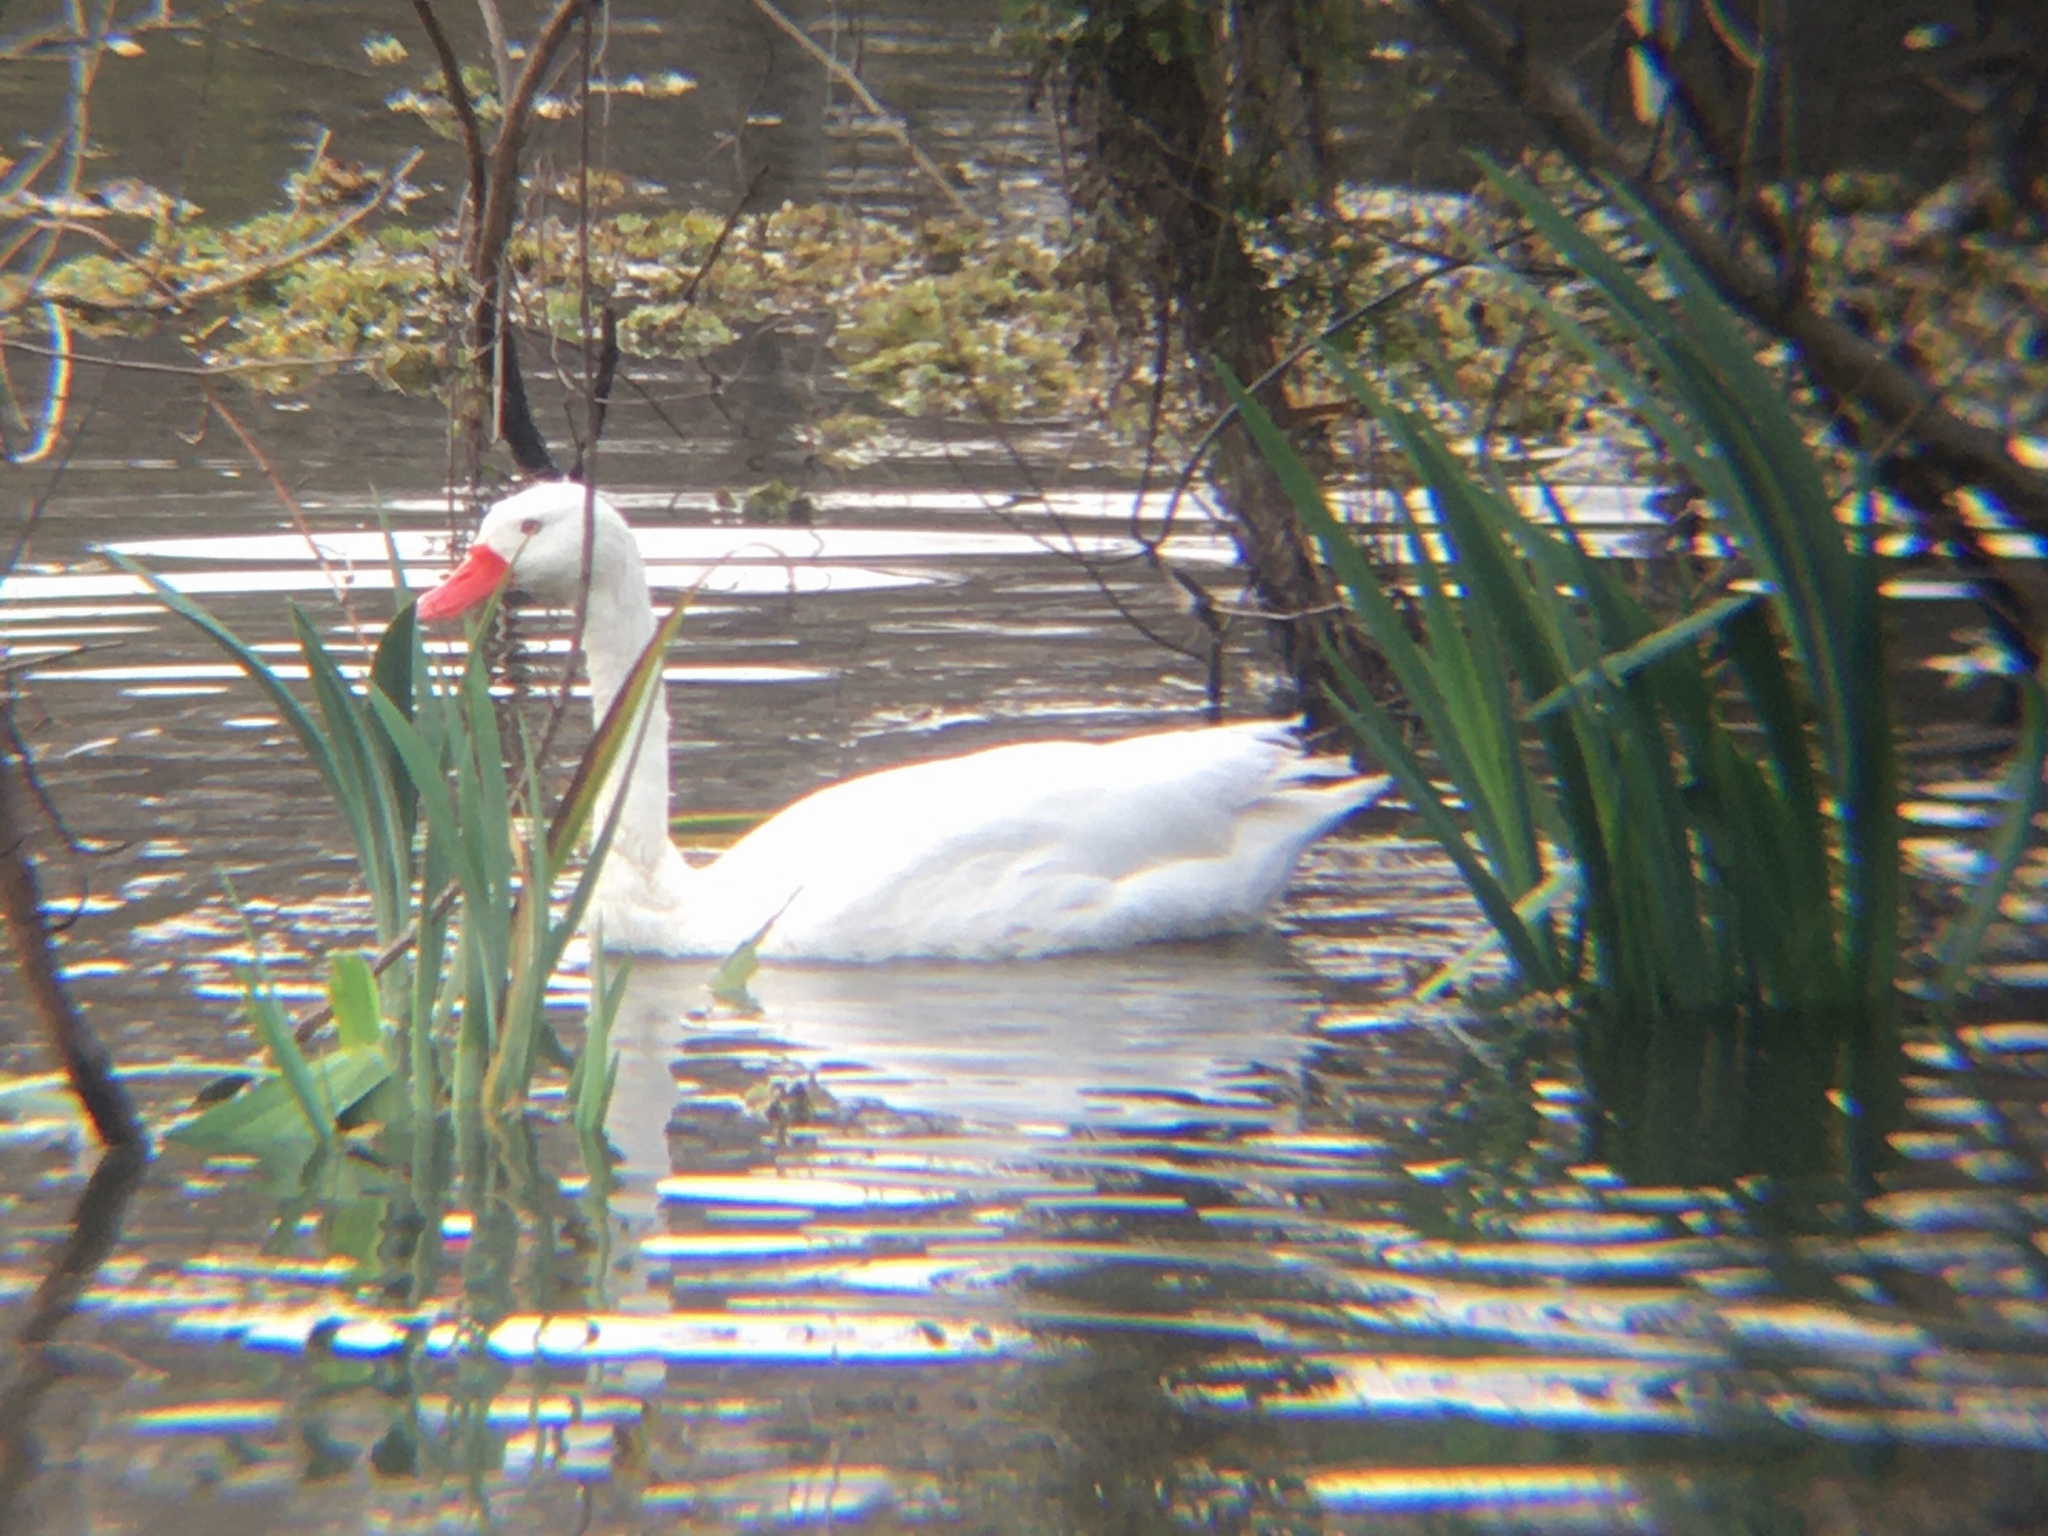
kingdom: Animalia
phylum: Chordata
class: Aves
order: Anseriformes
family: Anatidae
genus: Coscoroba
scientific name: Coscoroba coscoroba
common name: Coscoroba swan
